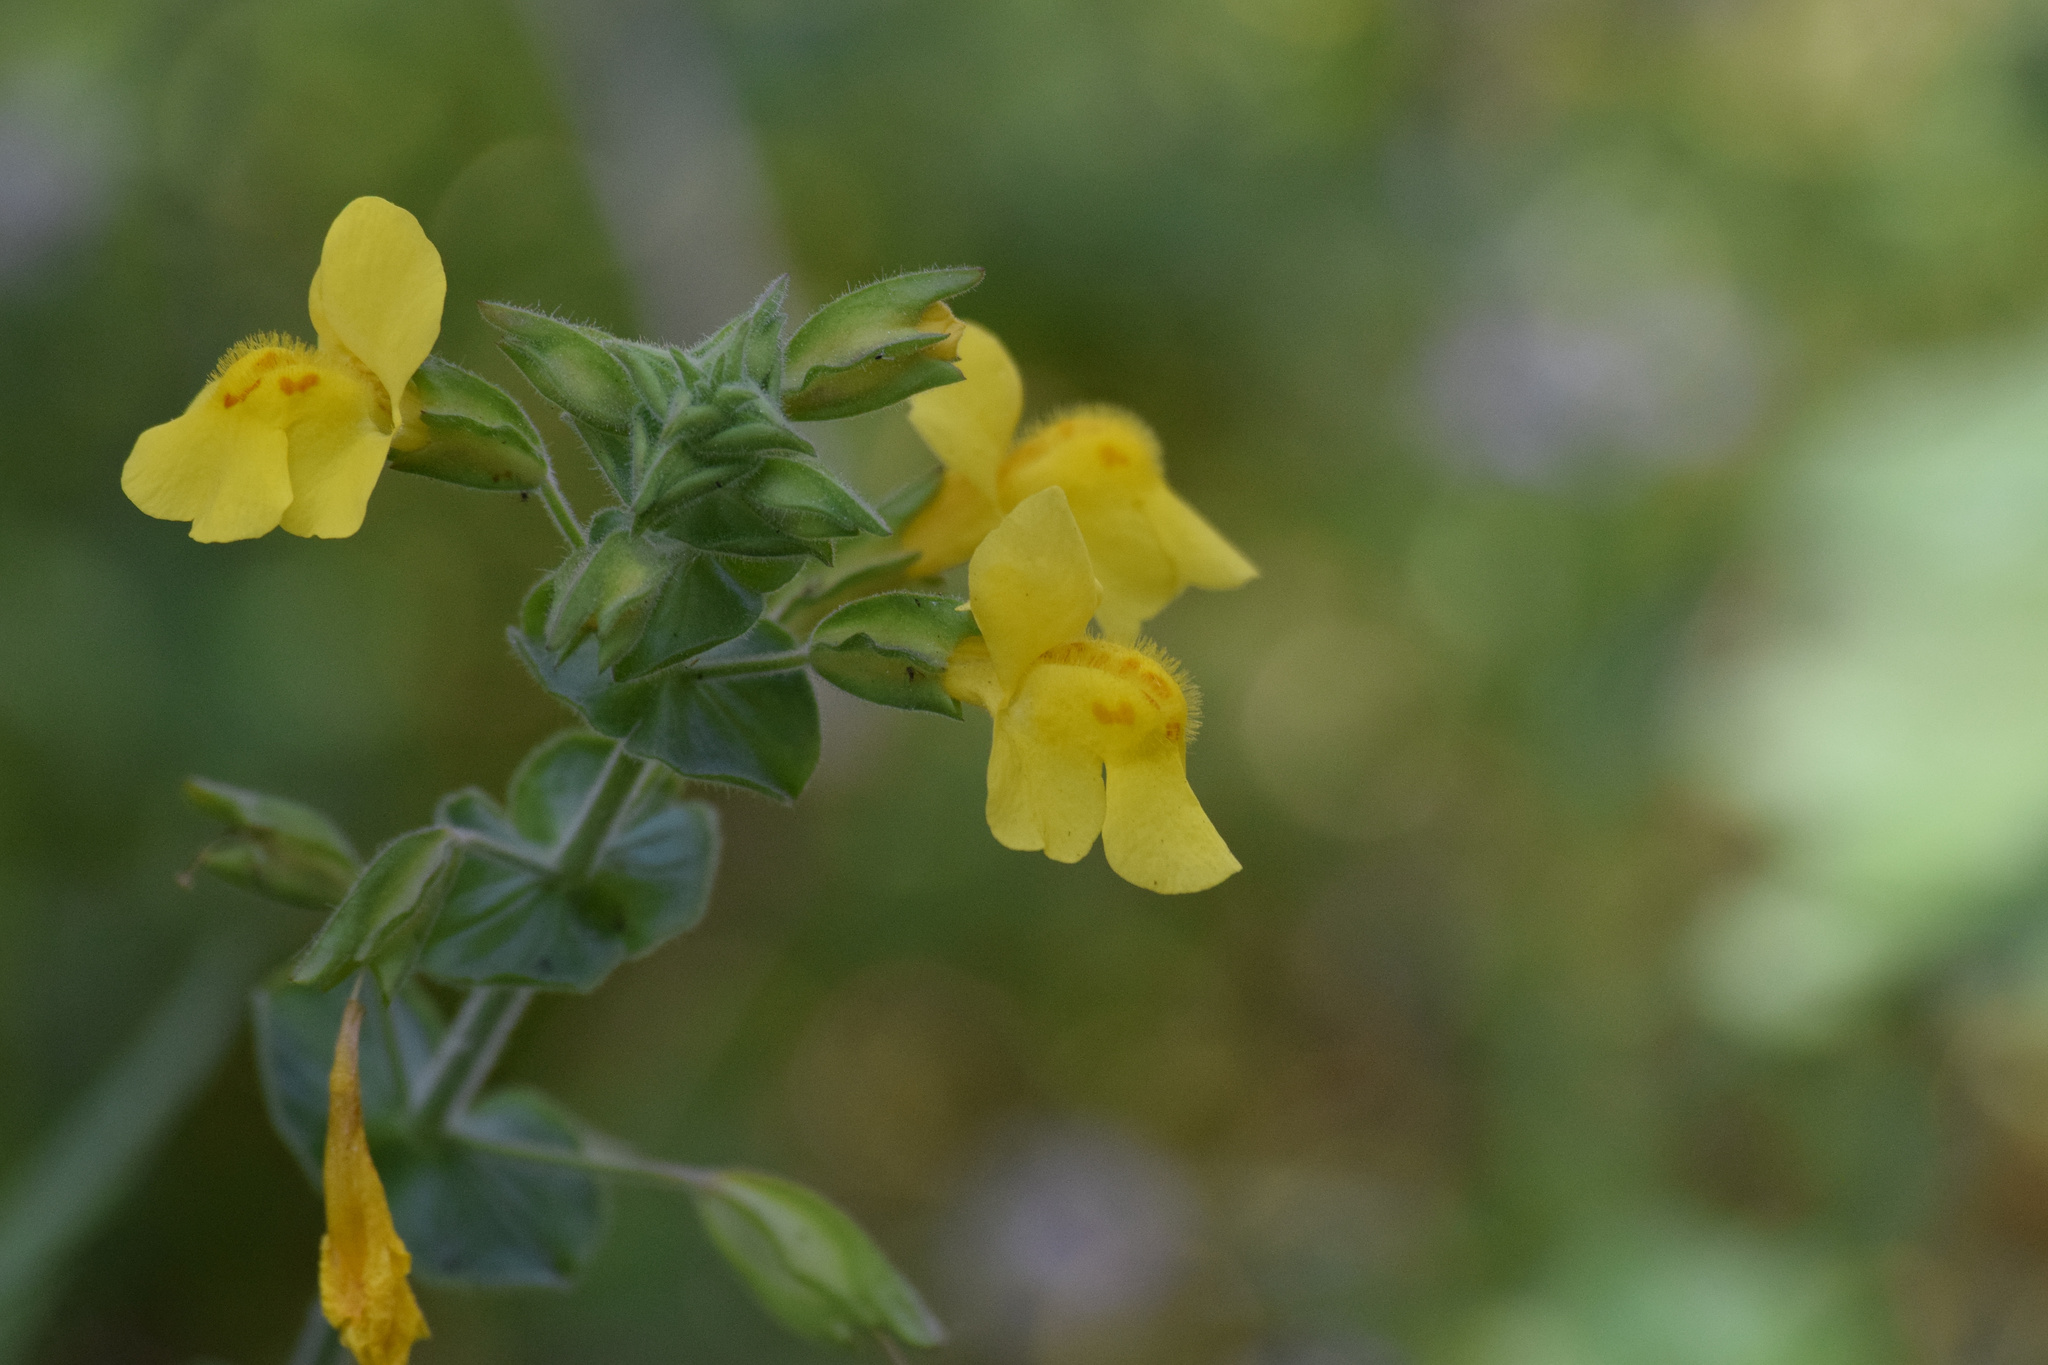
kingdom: Plantae
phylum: Tracheophyta
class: Magnoliopsida
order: Lamiales
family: Phrymaceae
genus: Erythranthe
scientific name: Erythranthe guttata
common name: Monkeyflower
